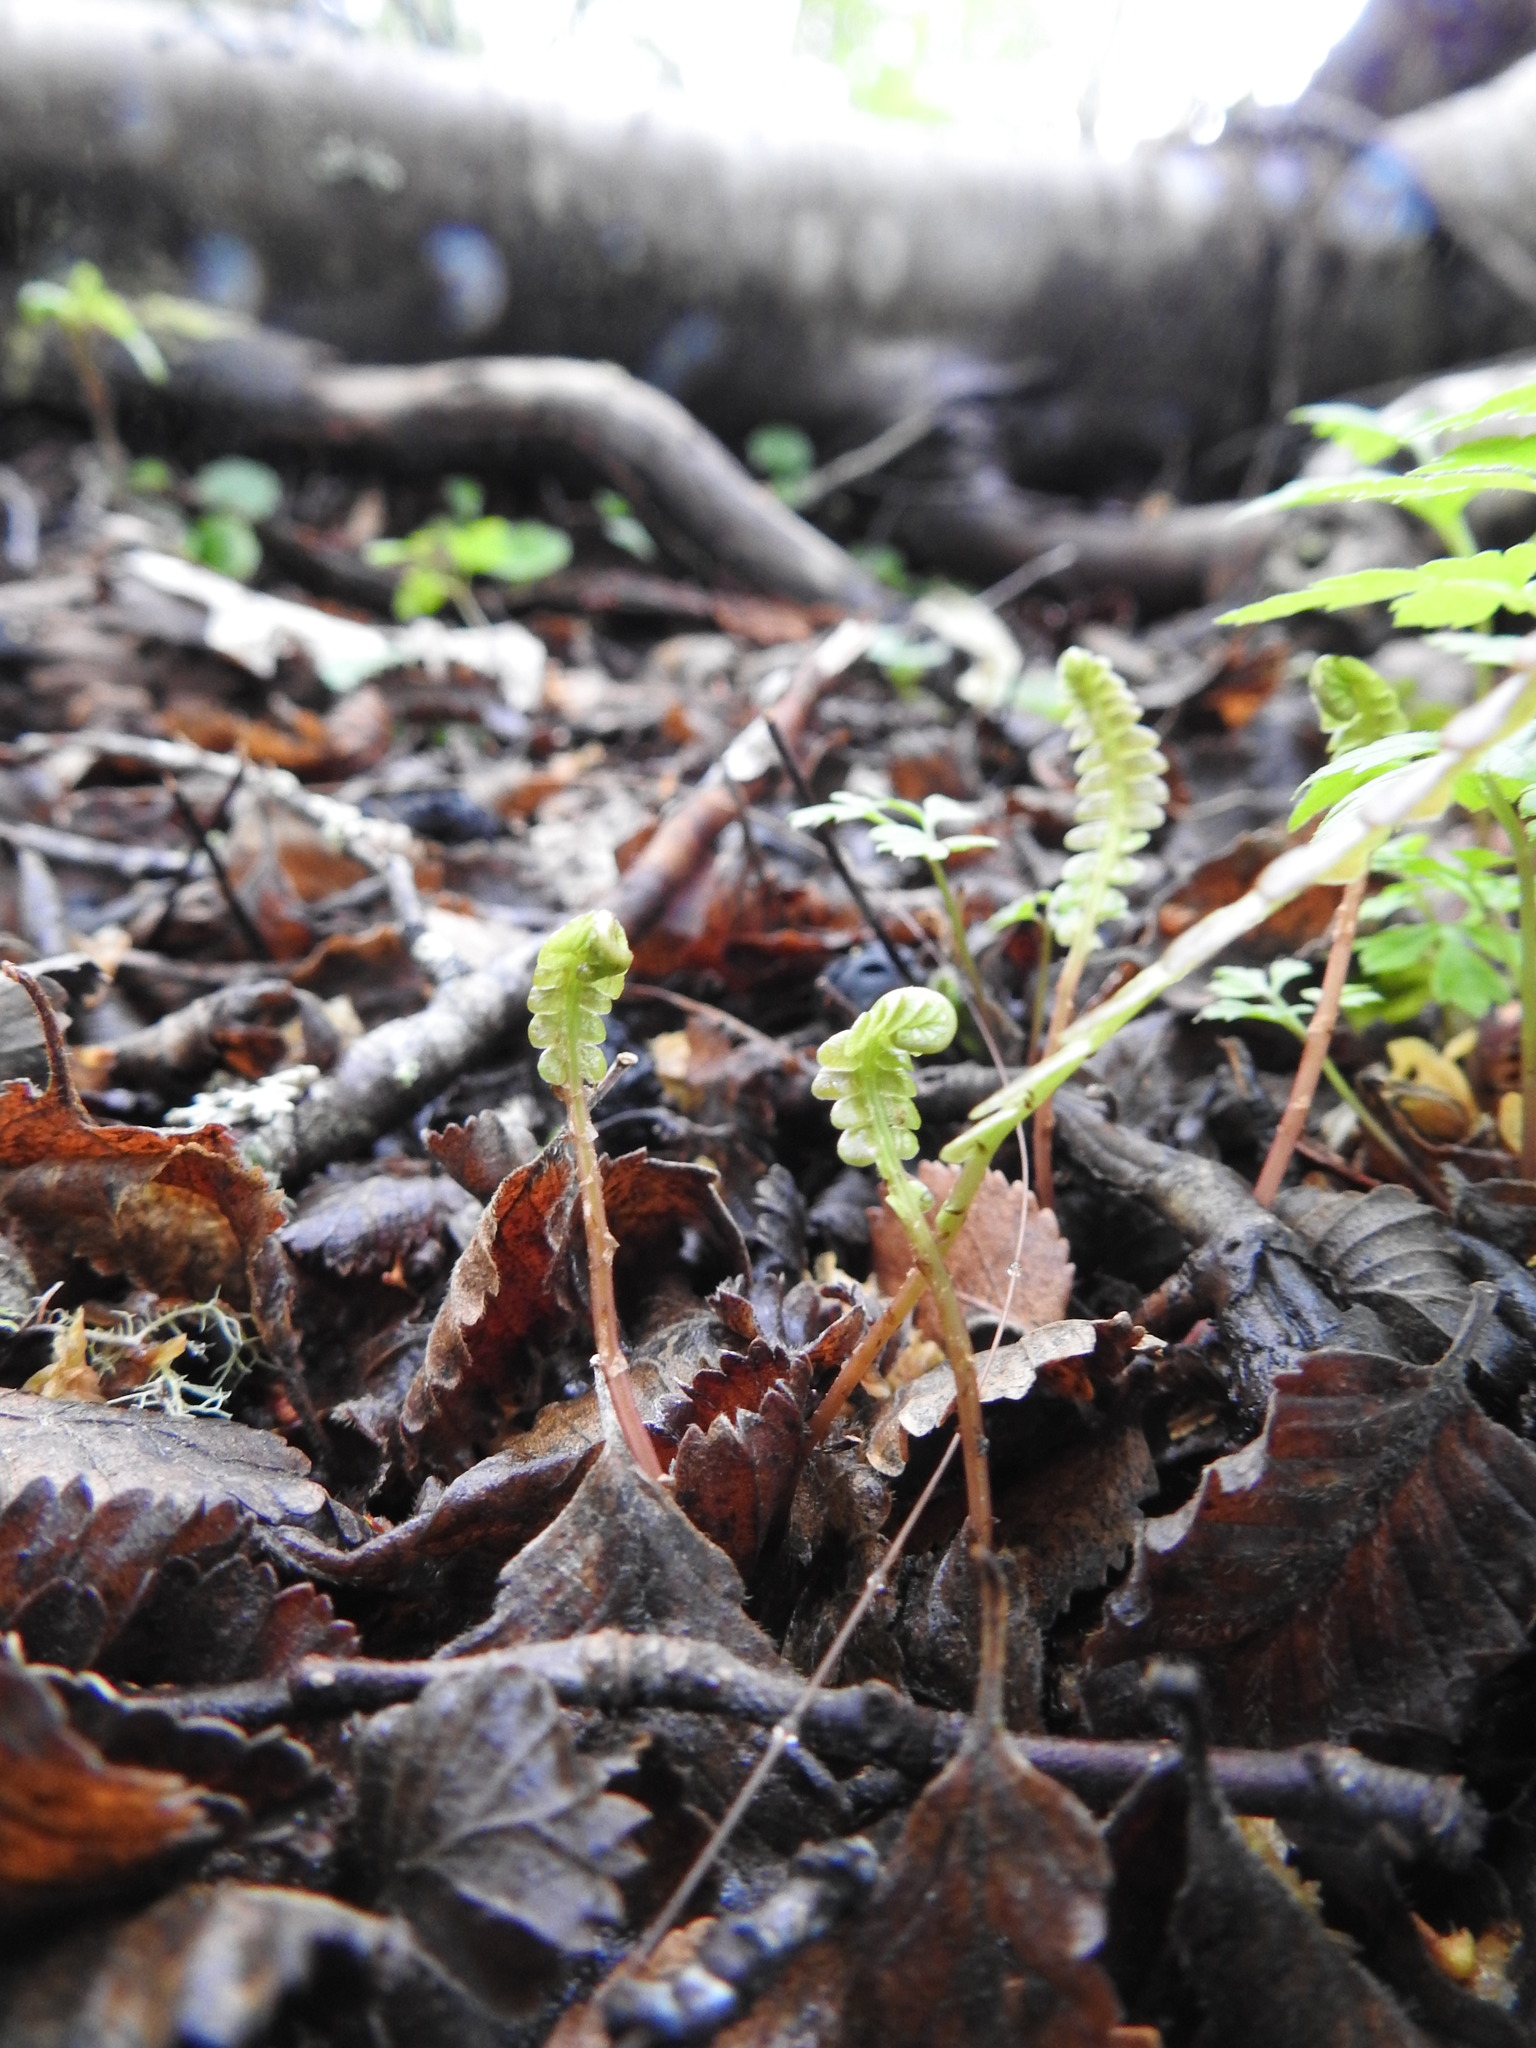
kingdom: Plantae
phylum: Tracheophyta
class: Polypodiopsida
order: Polypodiales
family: Blechnaceae
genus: Austroblechnum
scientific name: Austroblechnum penna-marina
